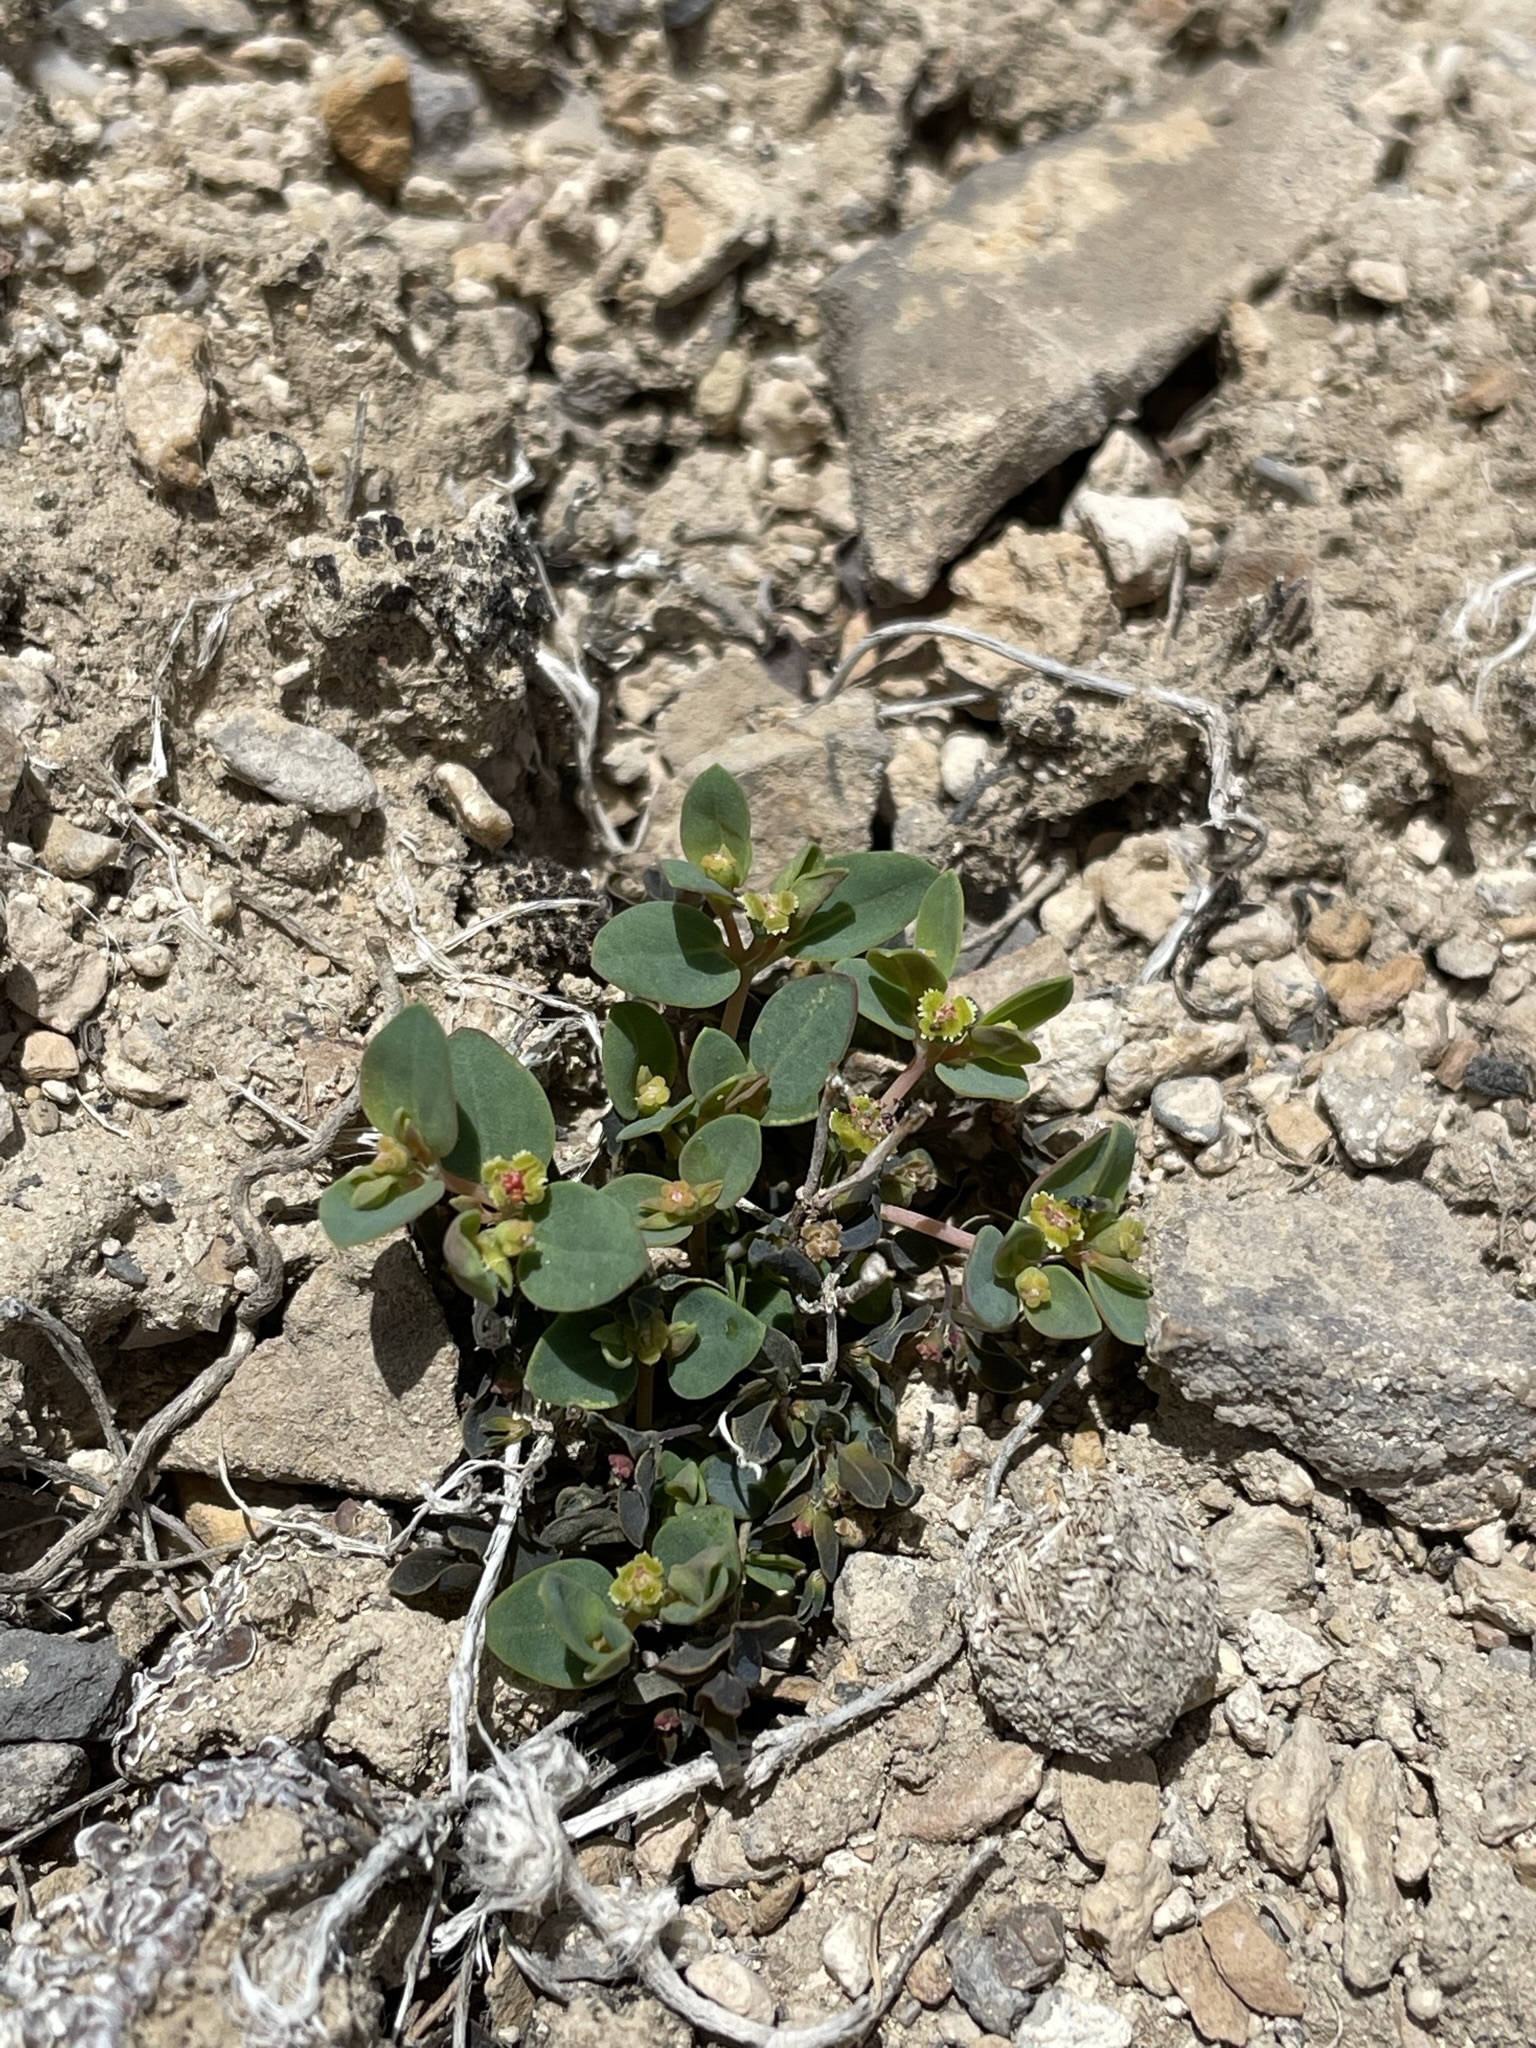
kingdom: Plantae
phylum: Tracheophyta
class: Magnoliopsida
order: Malpighiales
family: Euphorbiaceae
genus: Euphorbia
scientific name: Euphorbia fendleri
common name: Fendler's euphorbia
